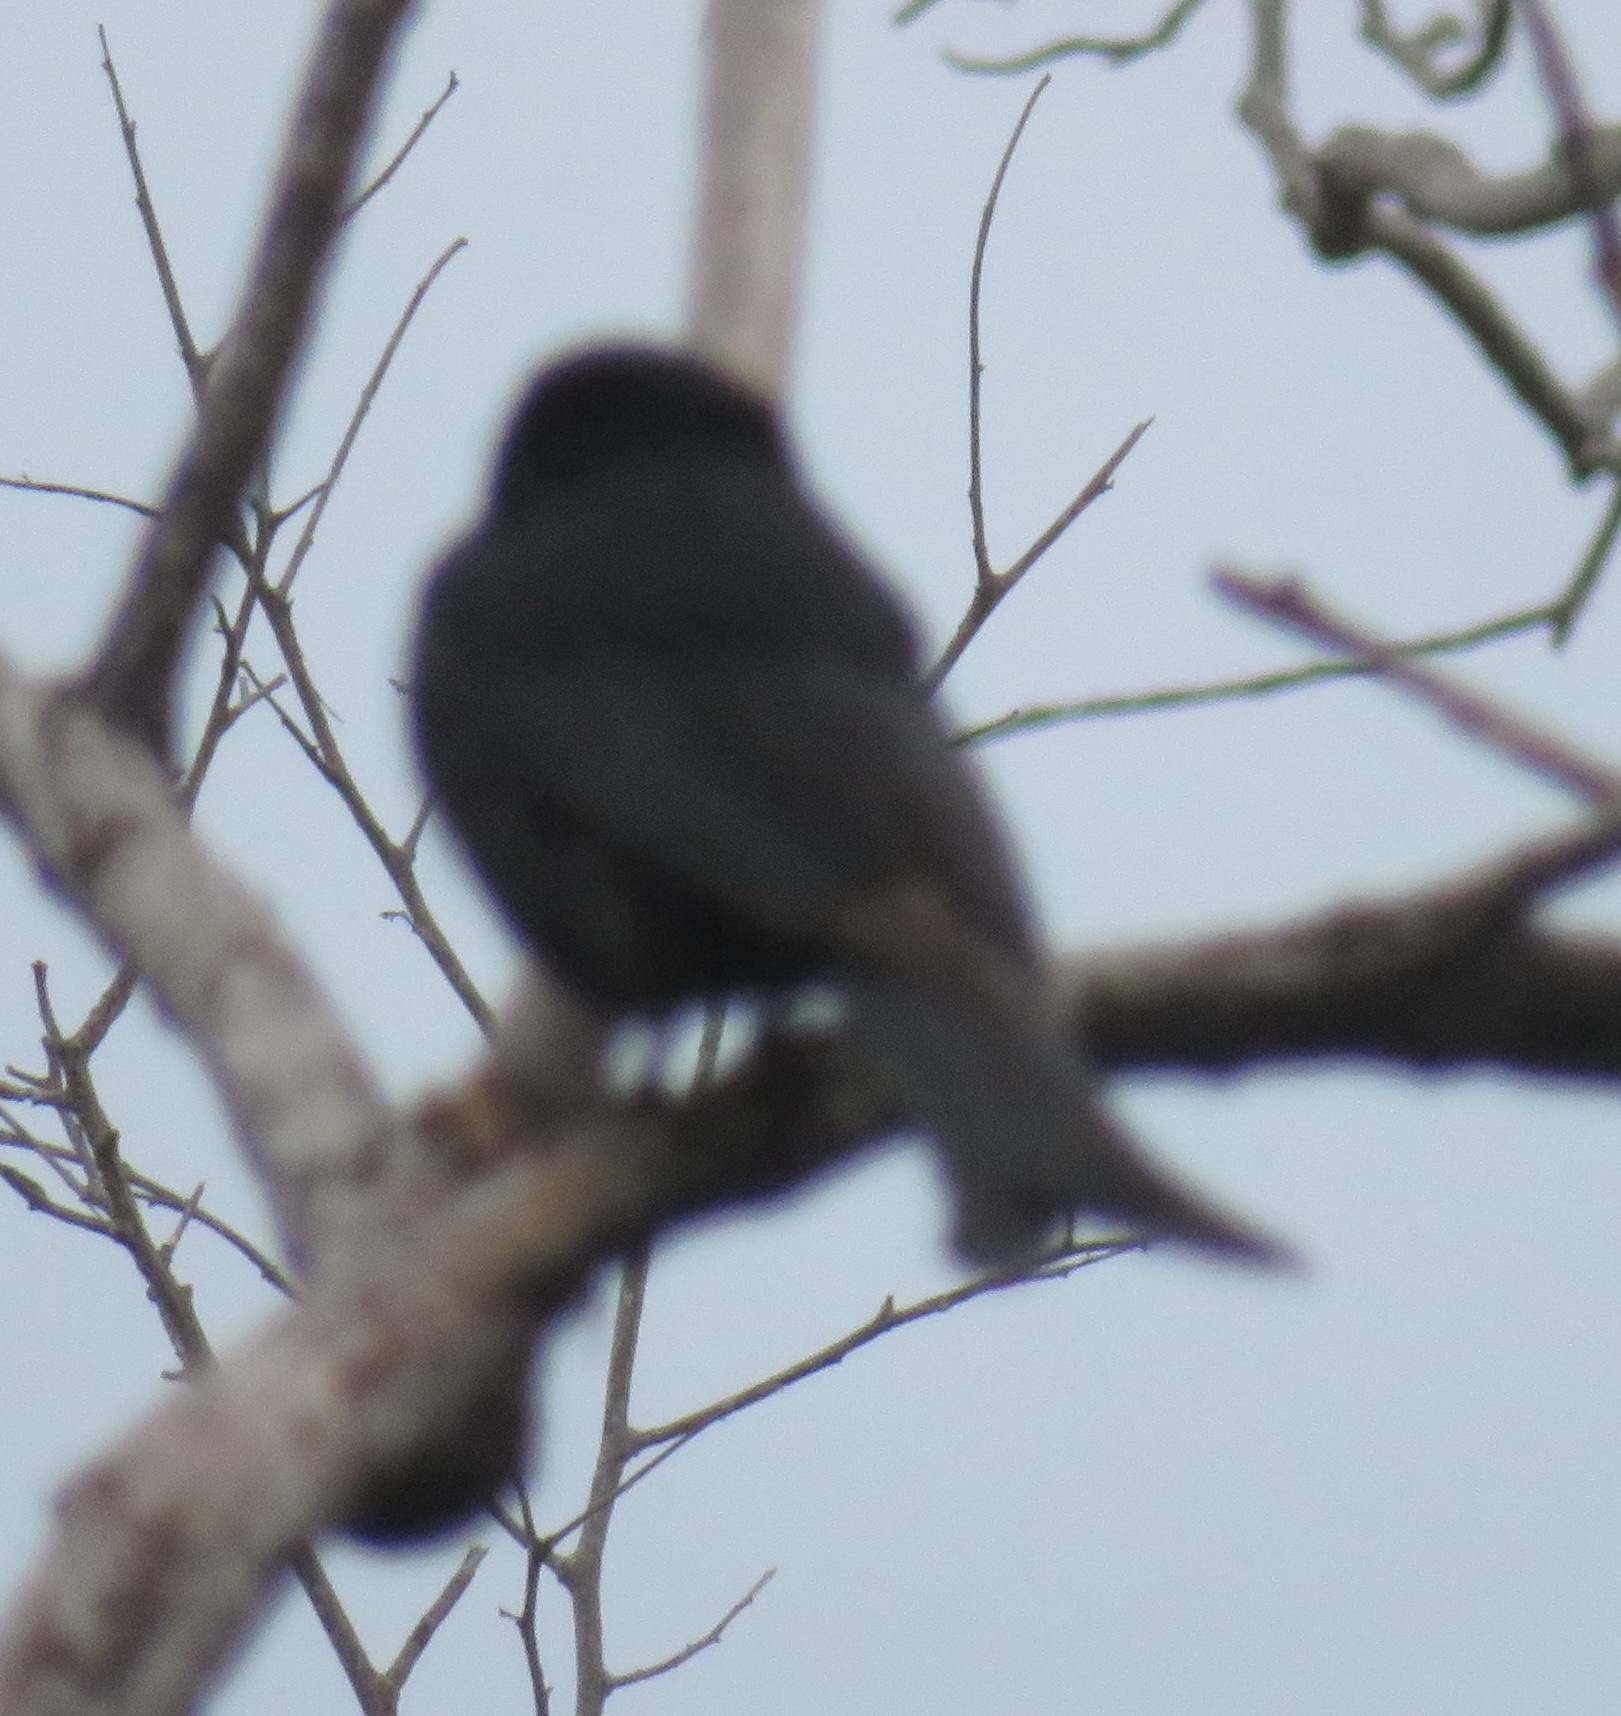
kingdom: Animalia
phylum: Chordata
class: Aves
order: Passeriformes
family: Dicruridae
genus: Dicrurus
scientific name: Dicrurus adsimilis
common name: Fork-tailed drongo
